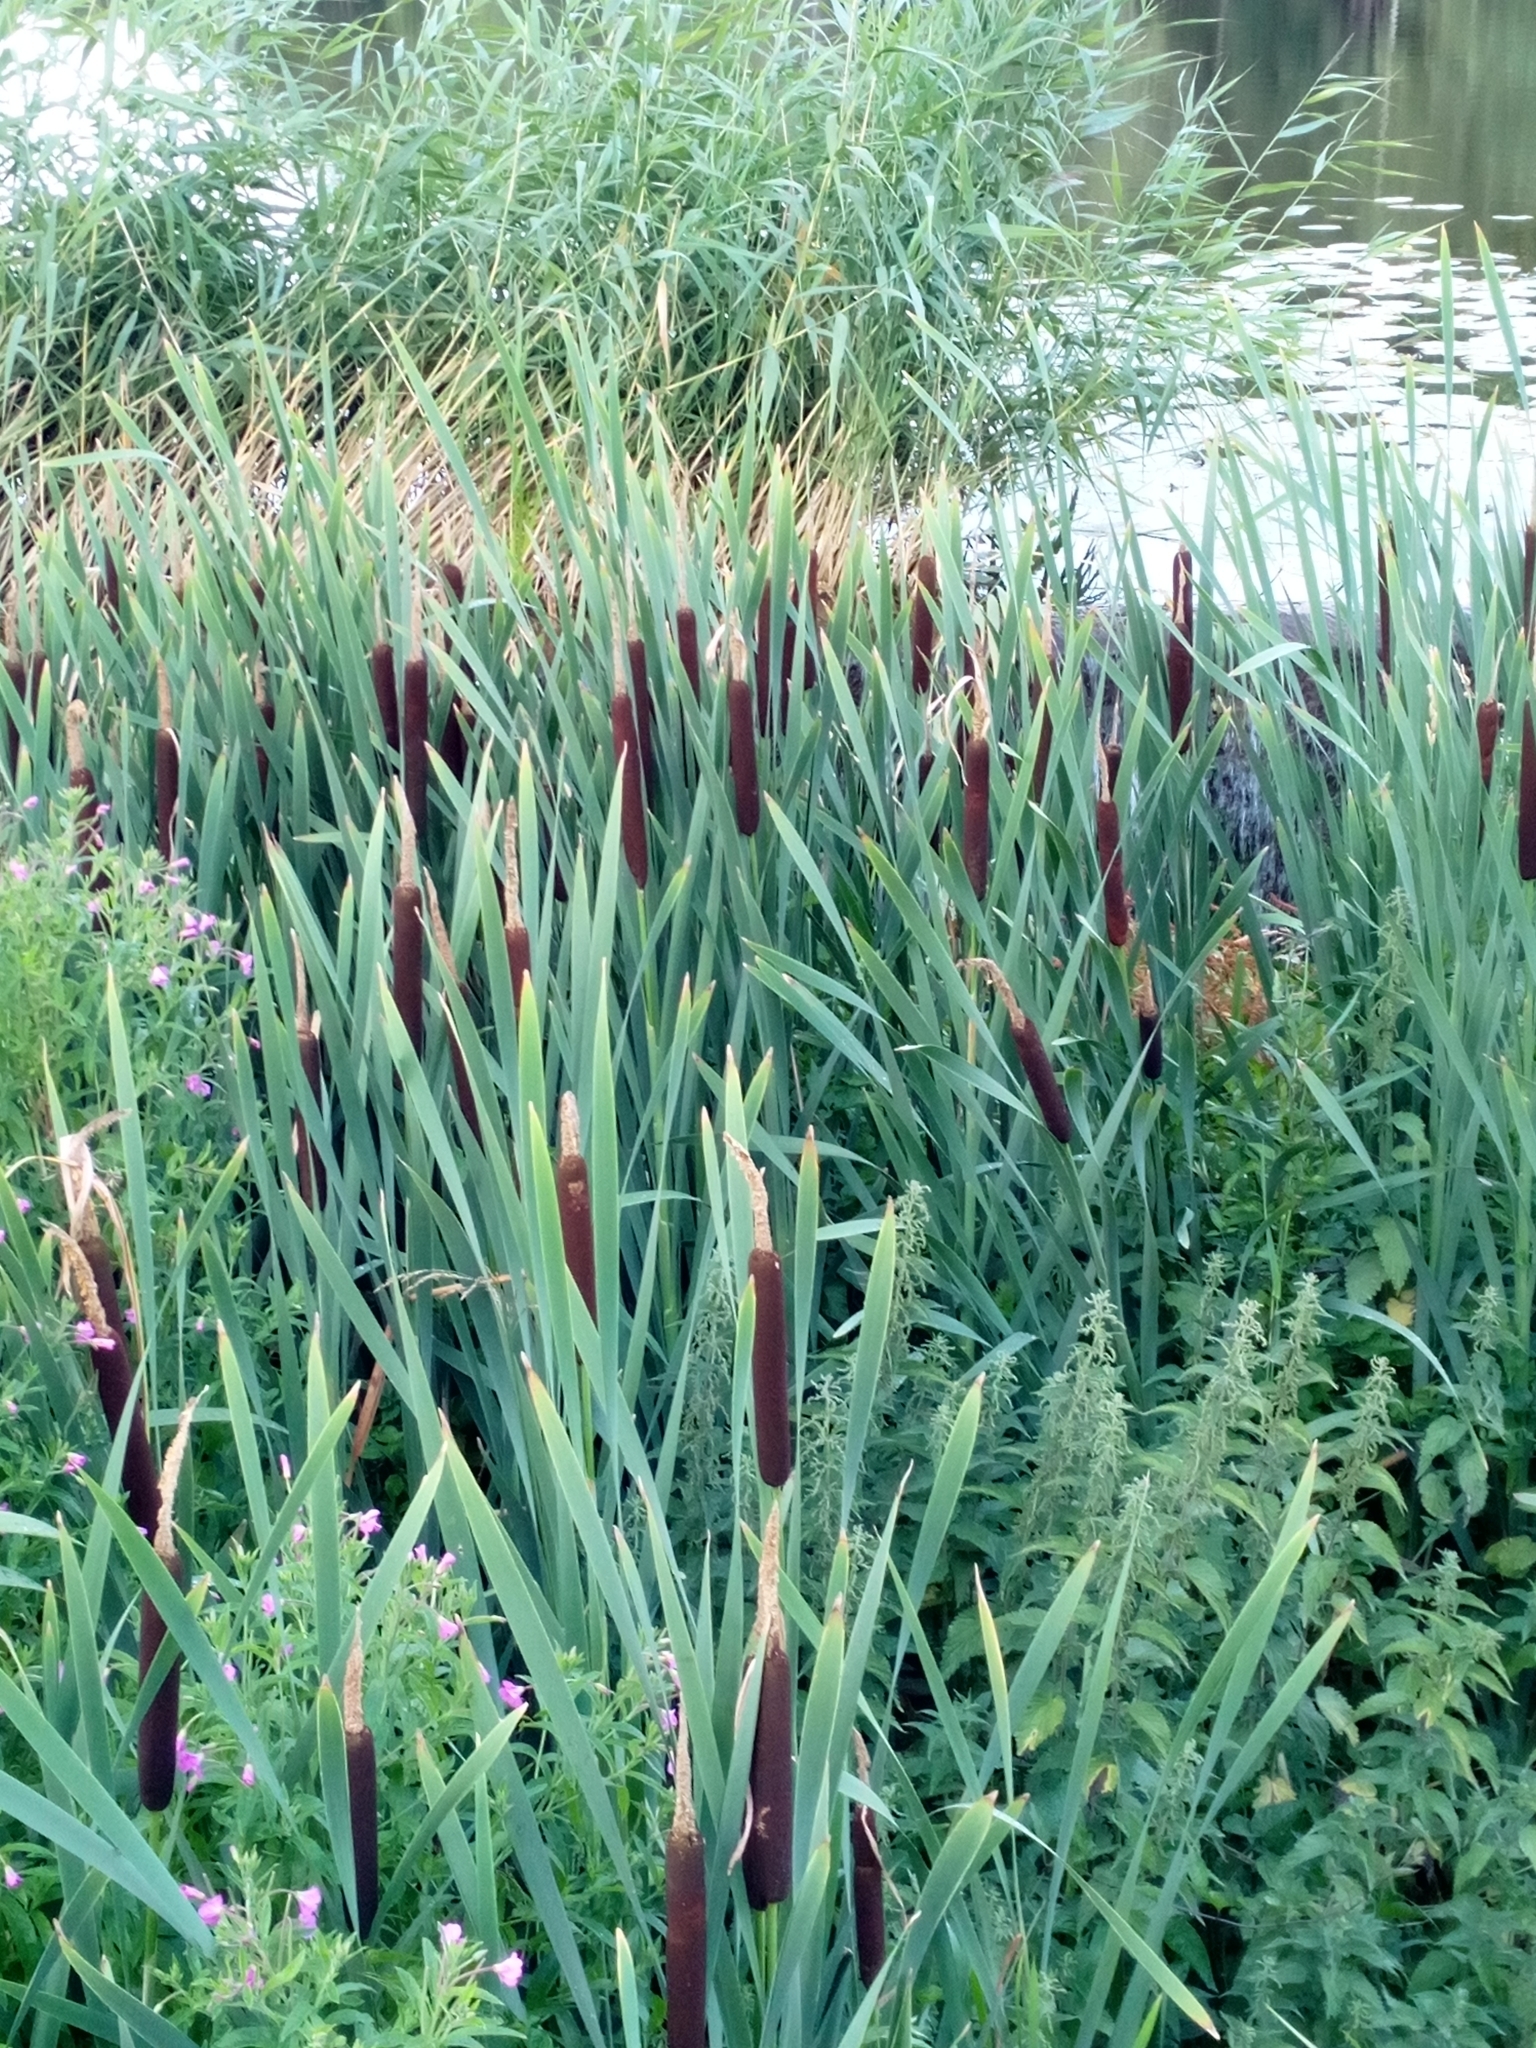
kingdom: Plantae
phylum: Tracheophyta
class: Liliopsida
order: Poales
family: Typhaceae
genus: Typha
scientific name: Typha latifolia
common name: Broadleaf cattail
